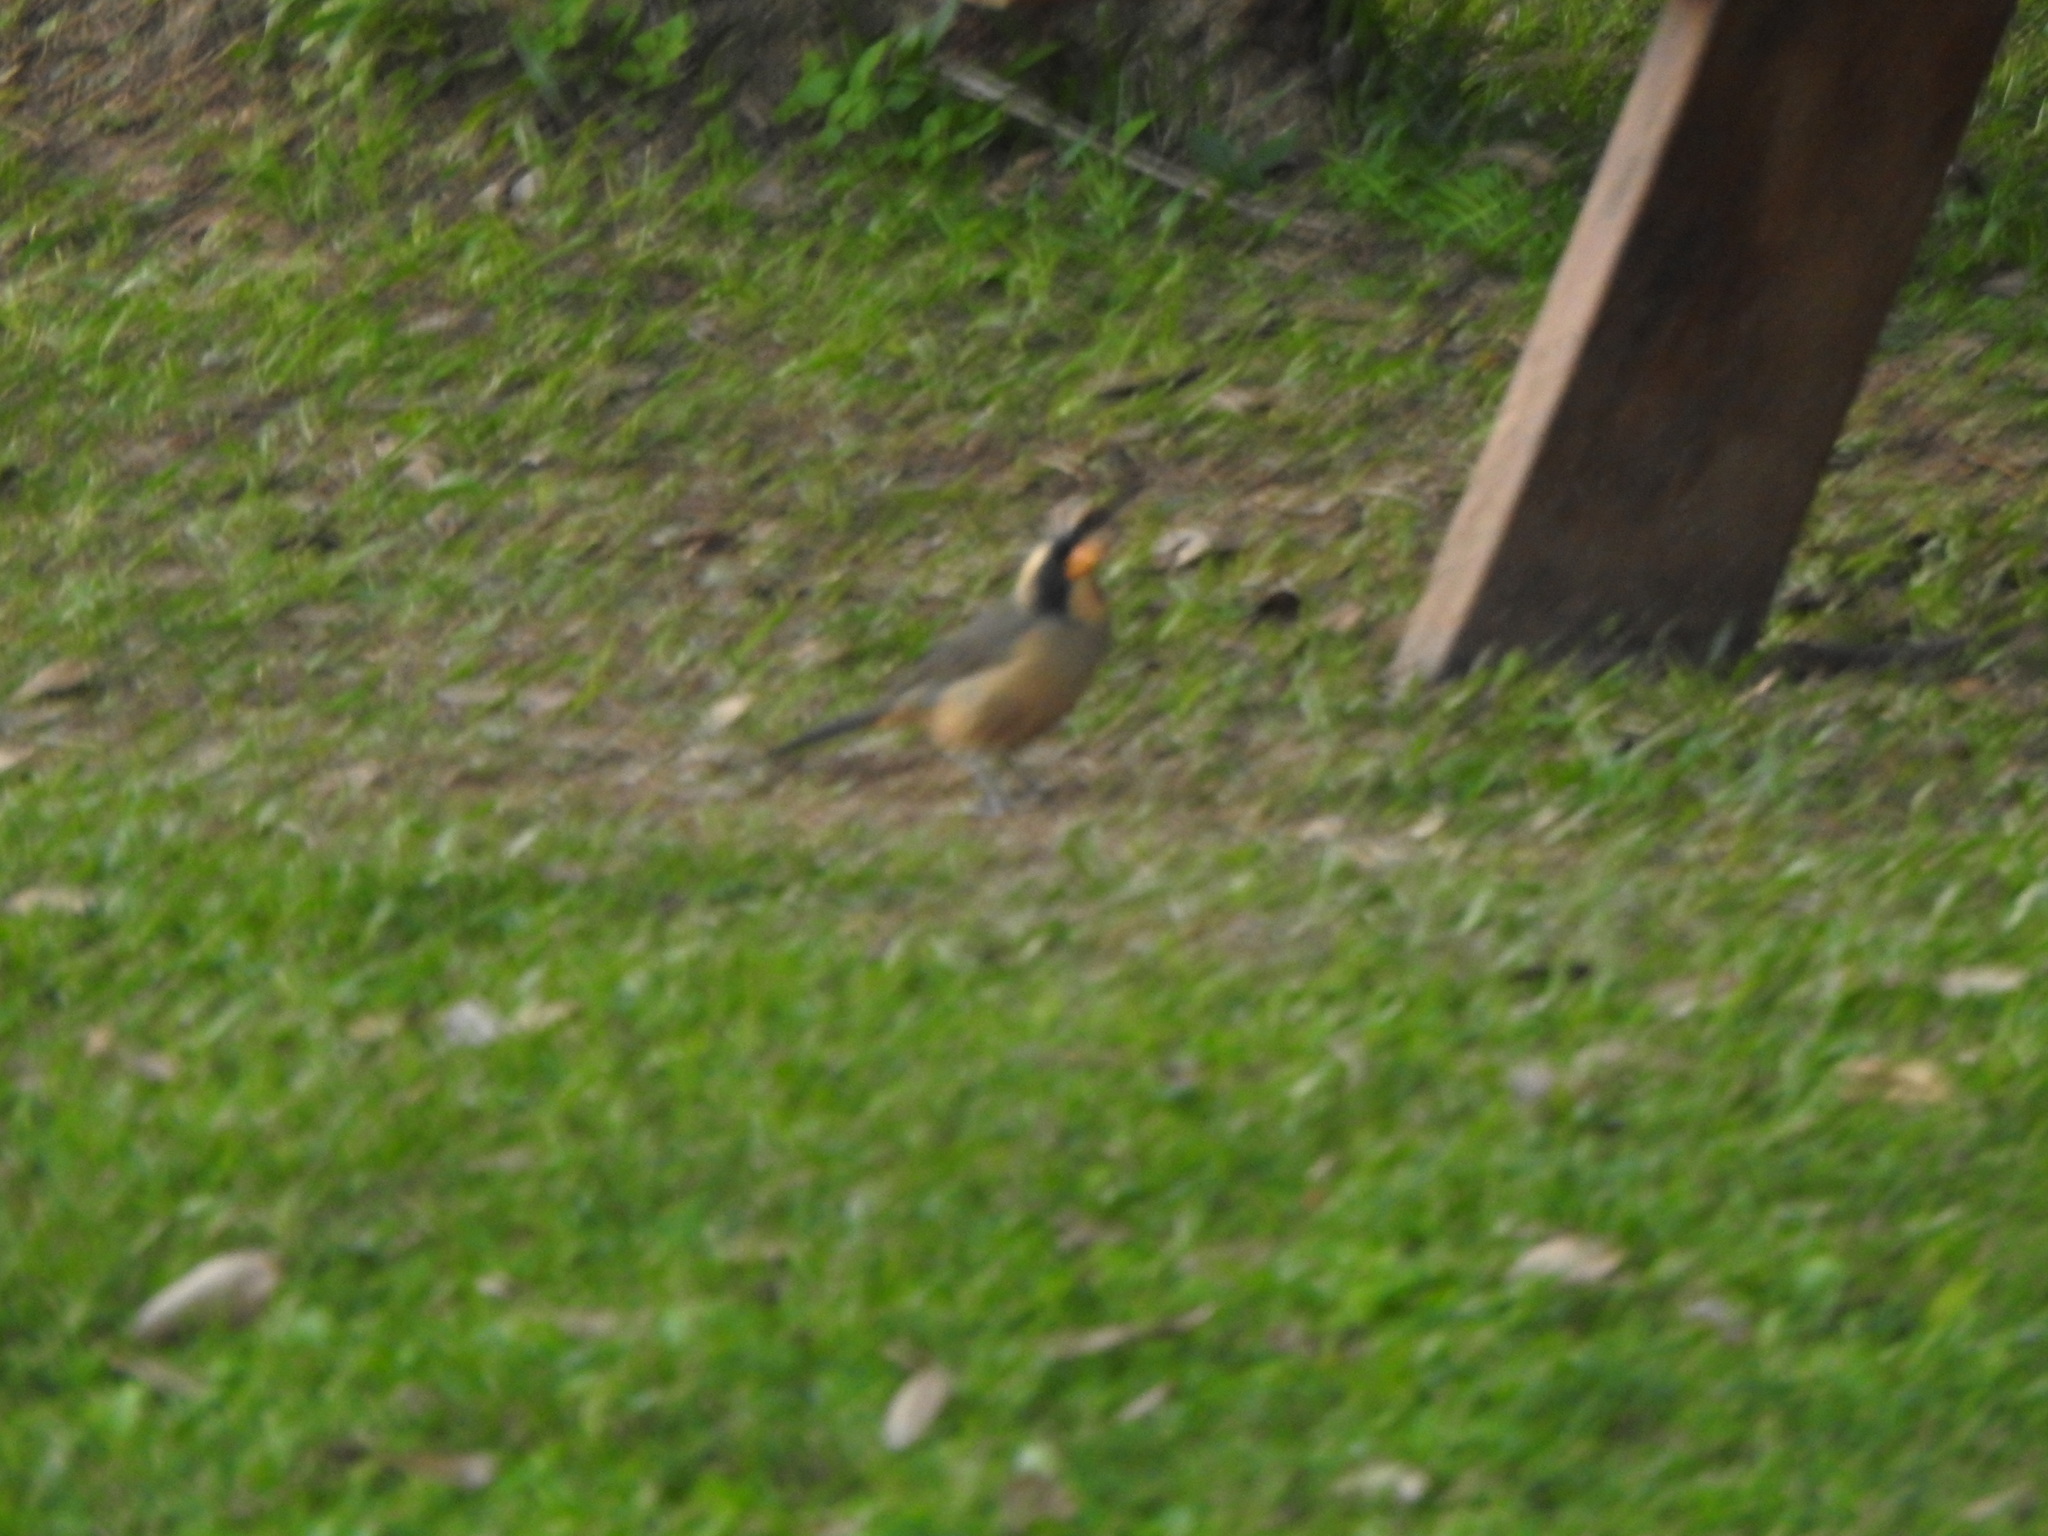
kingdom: Animalia
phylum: Chordata
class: Aves
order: Passeriformes
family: Thraupidae
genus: Saltator
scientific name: Saltator aurantiirostris
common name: Golden-billed saltator
